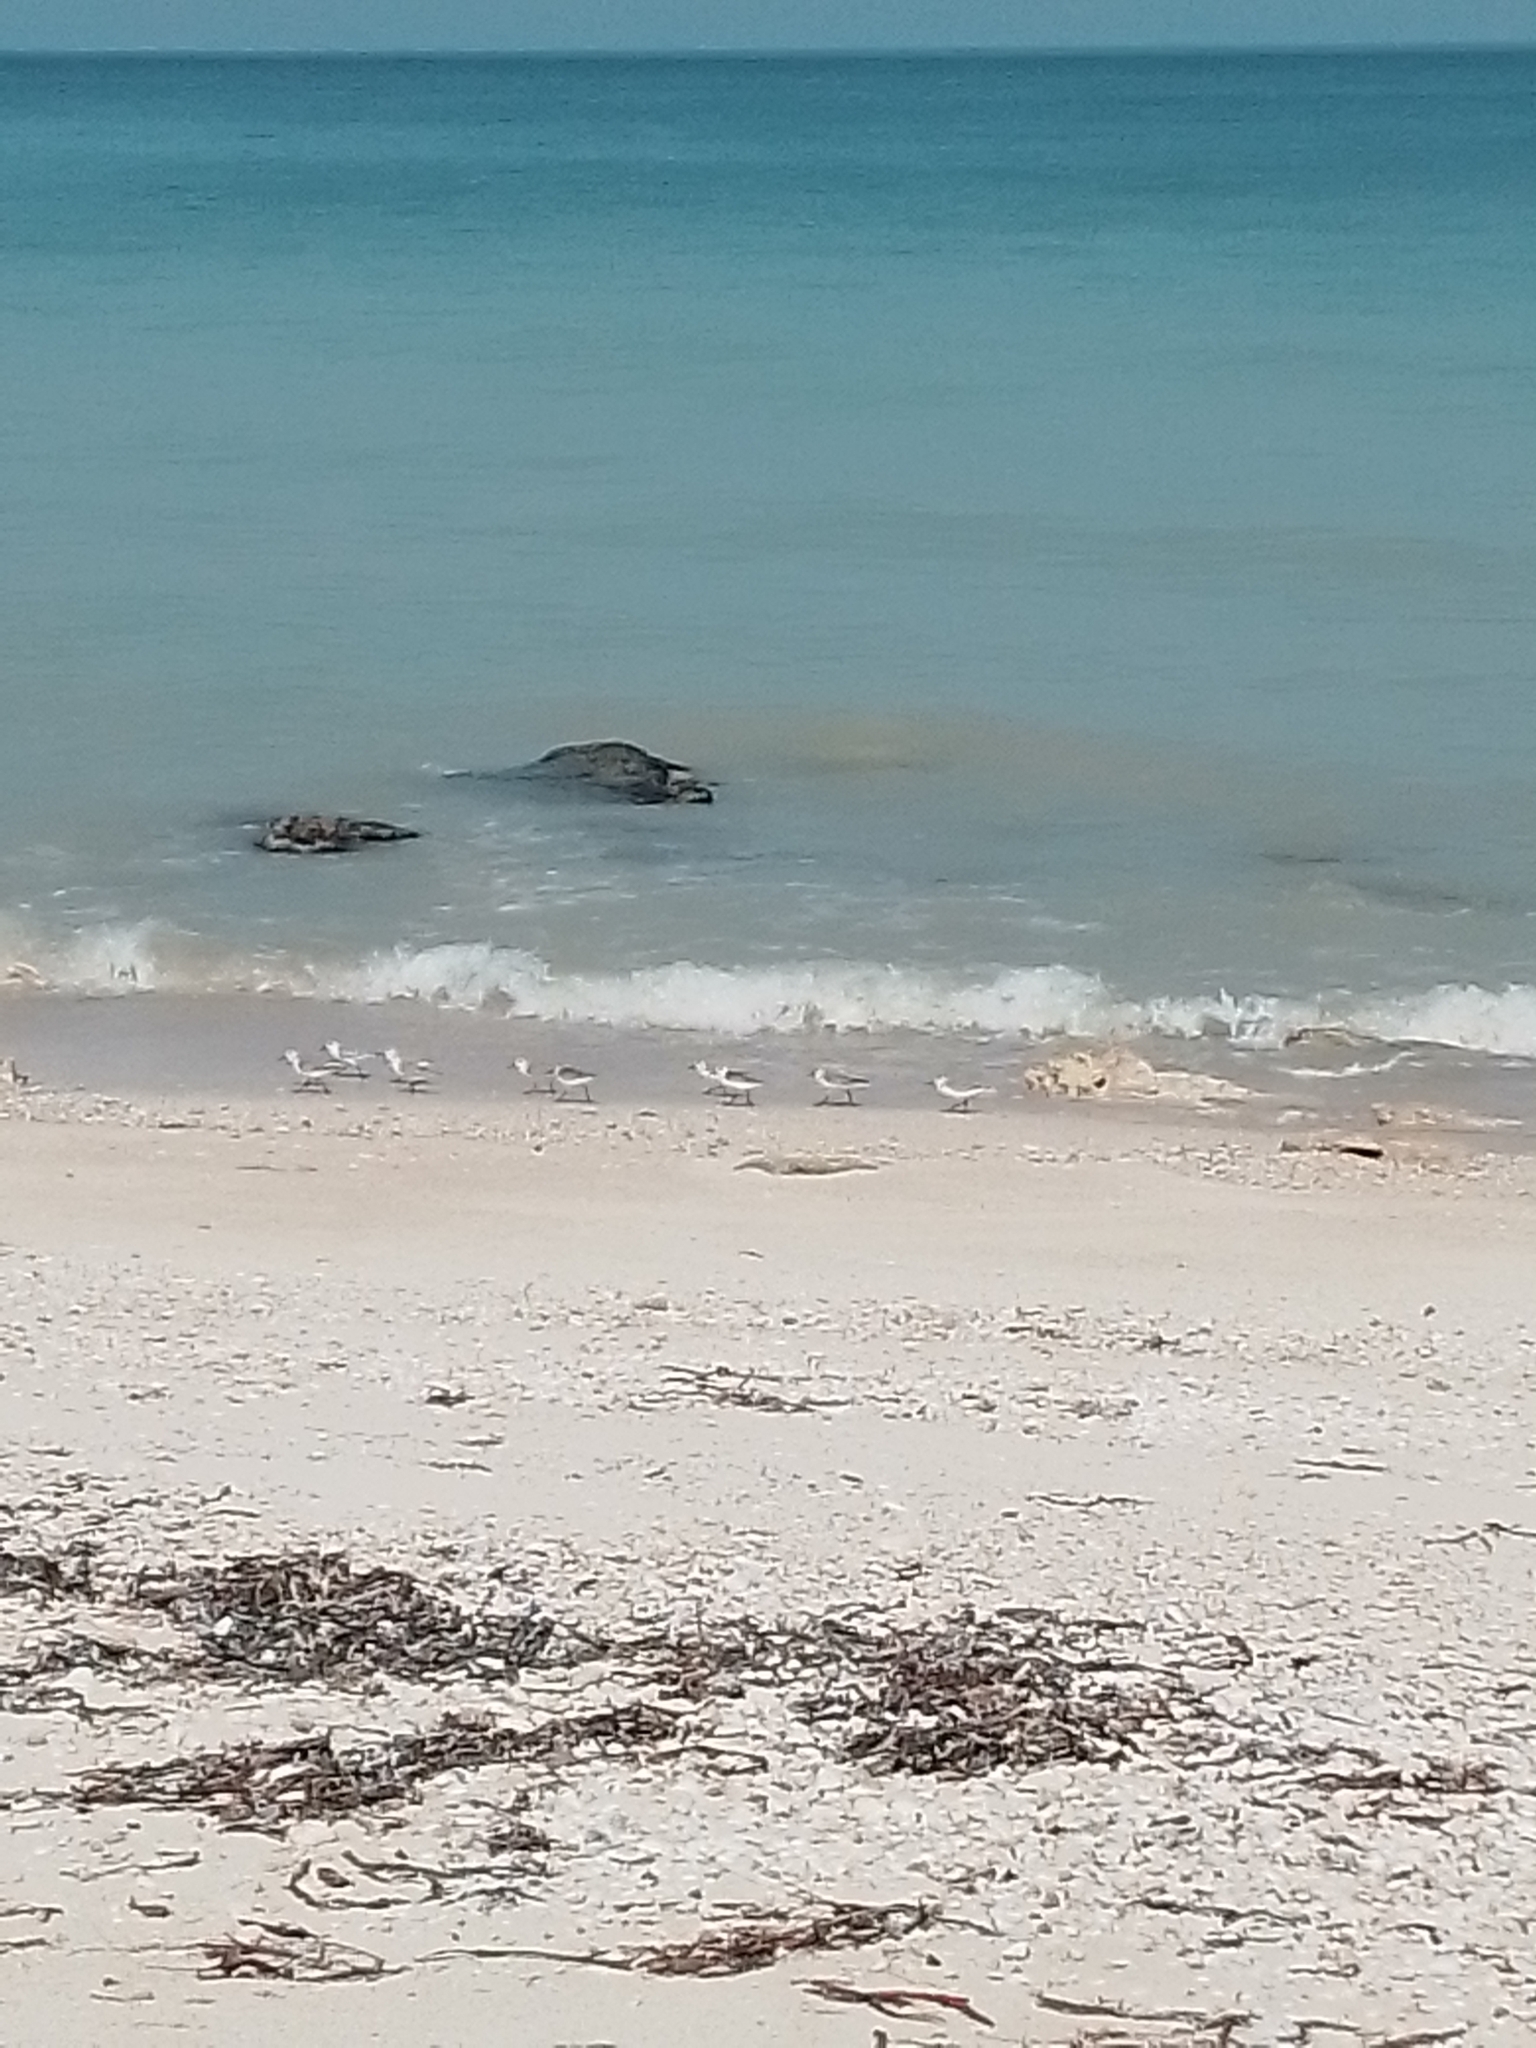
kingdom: Animalia
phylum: Chordata
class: Aves
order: Charadriiformes
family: Scolopacidae
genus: Calidris
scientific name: Calidris alba
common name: Sanderling
